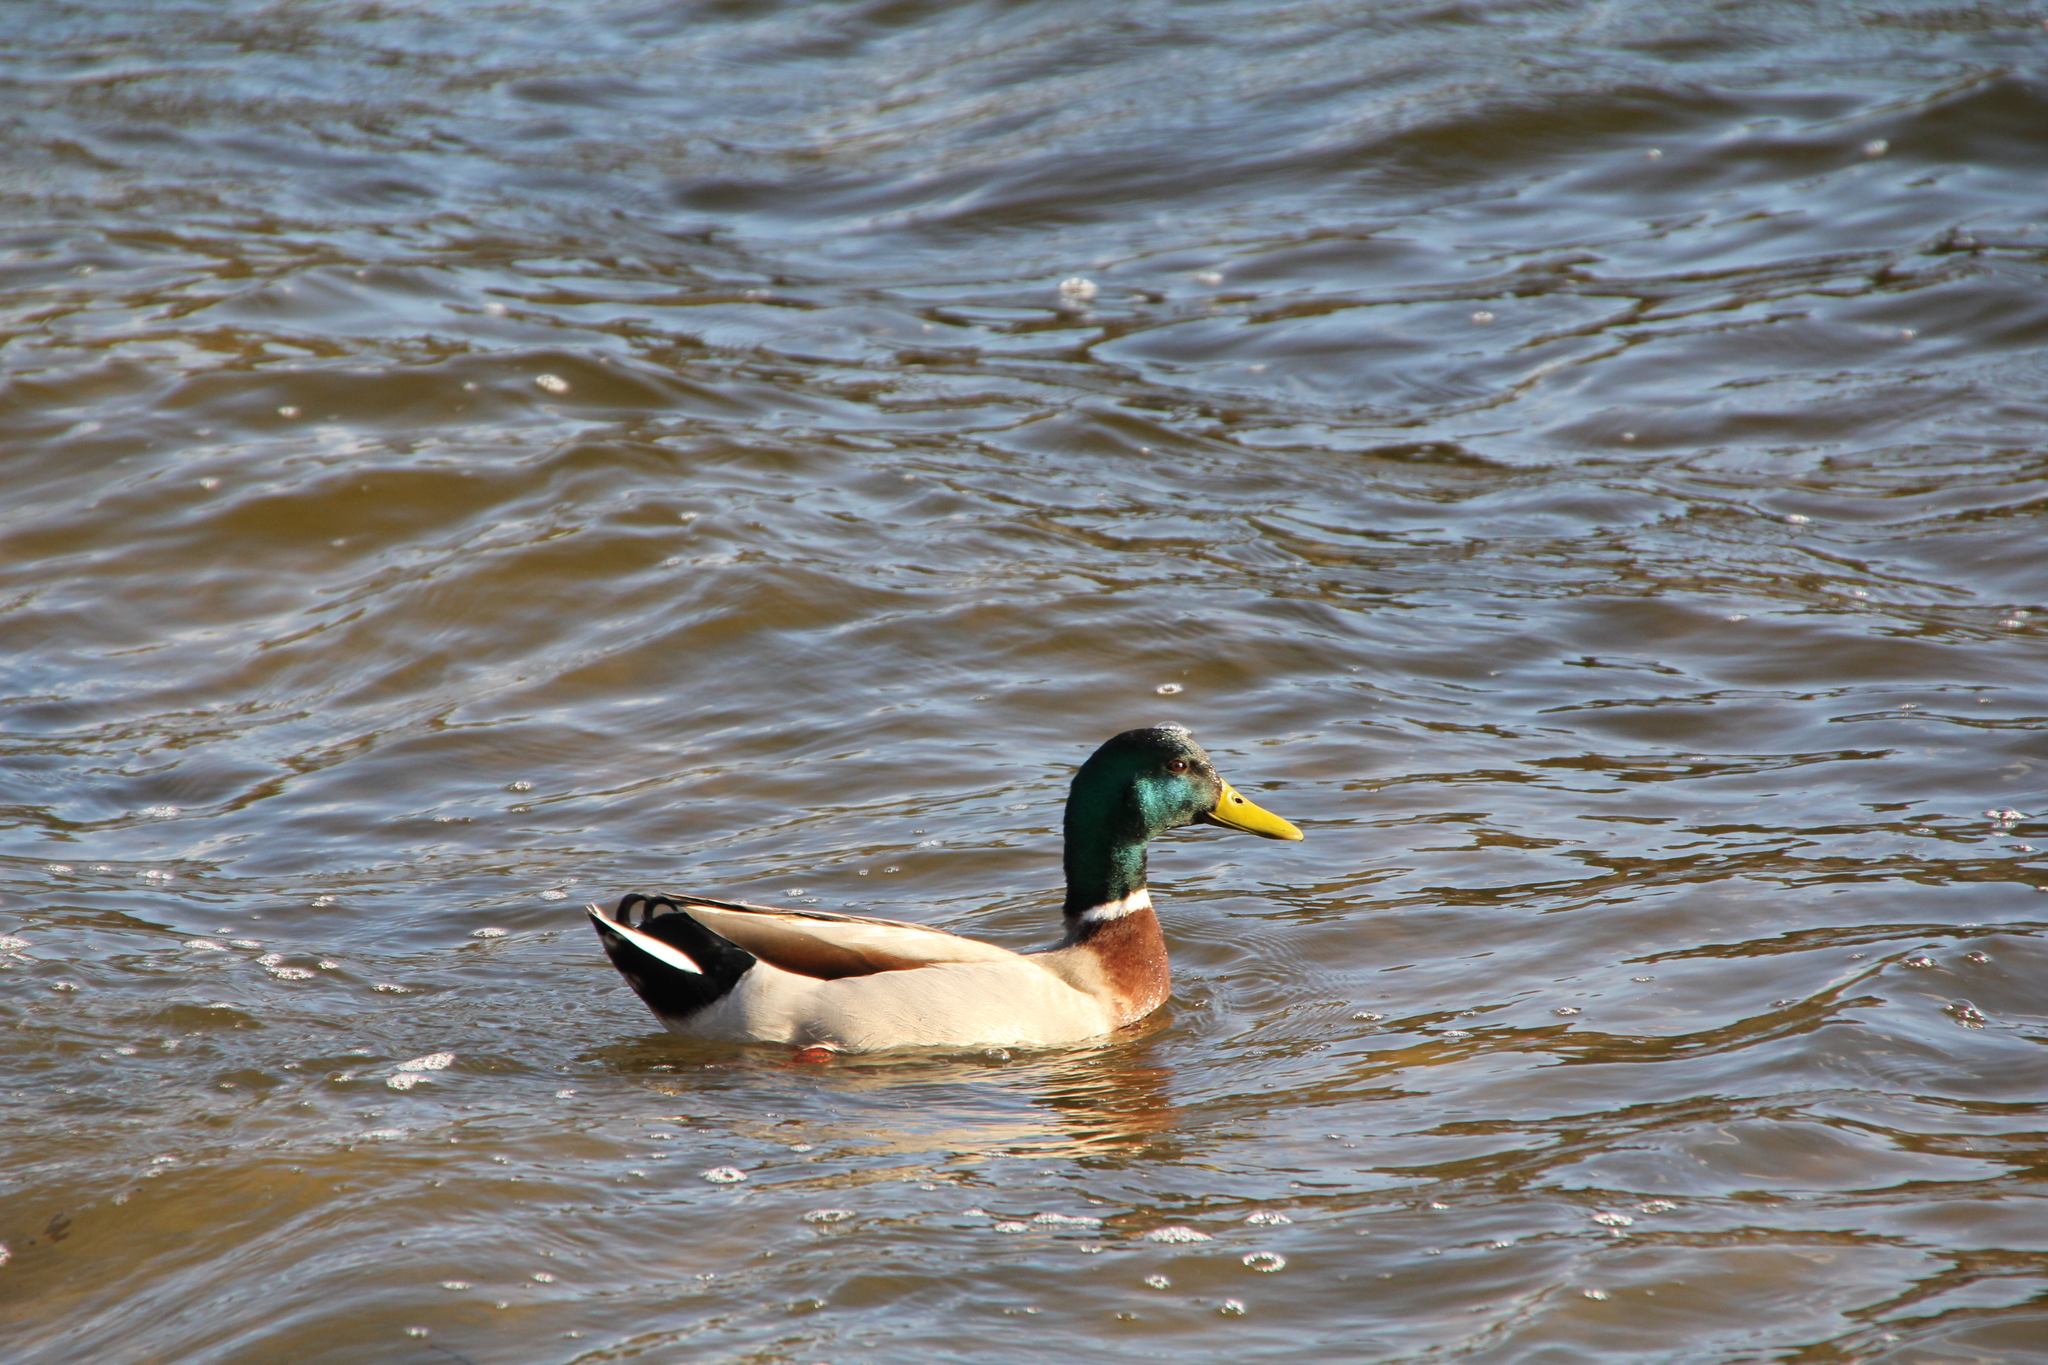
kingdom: Animalia
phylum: Chordata
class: Aves
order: Anseriformes
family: Anatidae
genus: Anas
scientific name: Anas platyrhynchos
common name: Mallard
